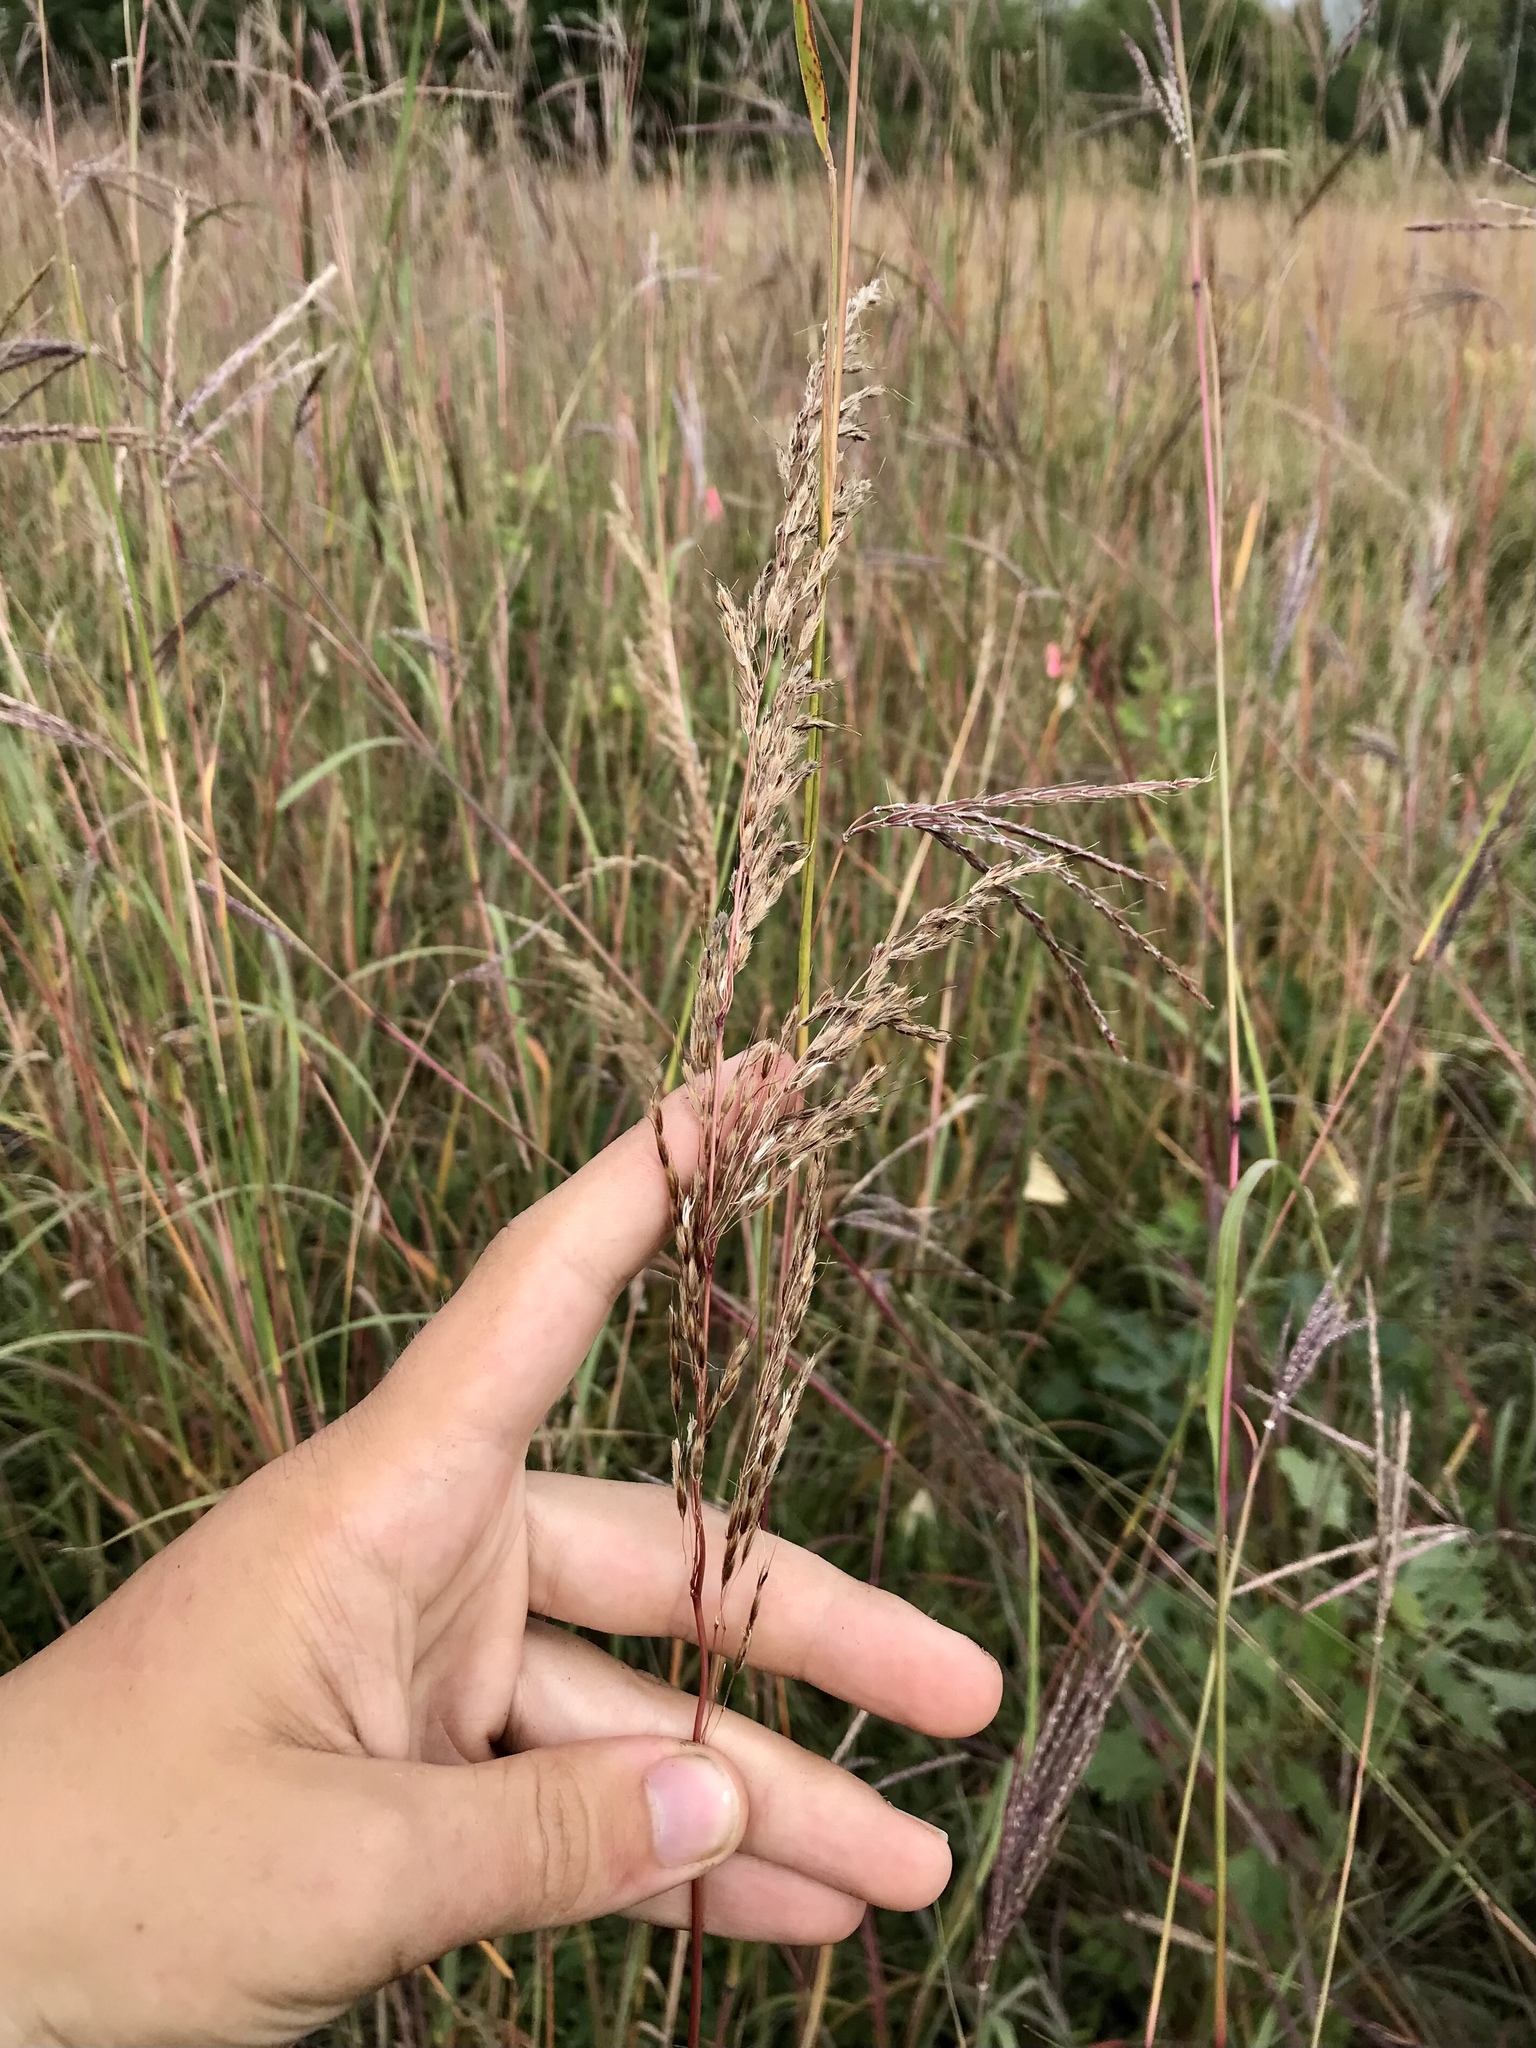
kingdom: Plantae
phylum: Tracheophyta
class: Liliopsida
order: Poales
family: Poaceae
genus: Sorghastrum
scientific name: Sorghastrum nutans
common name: Indian grass
